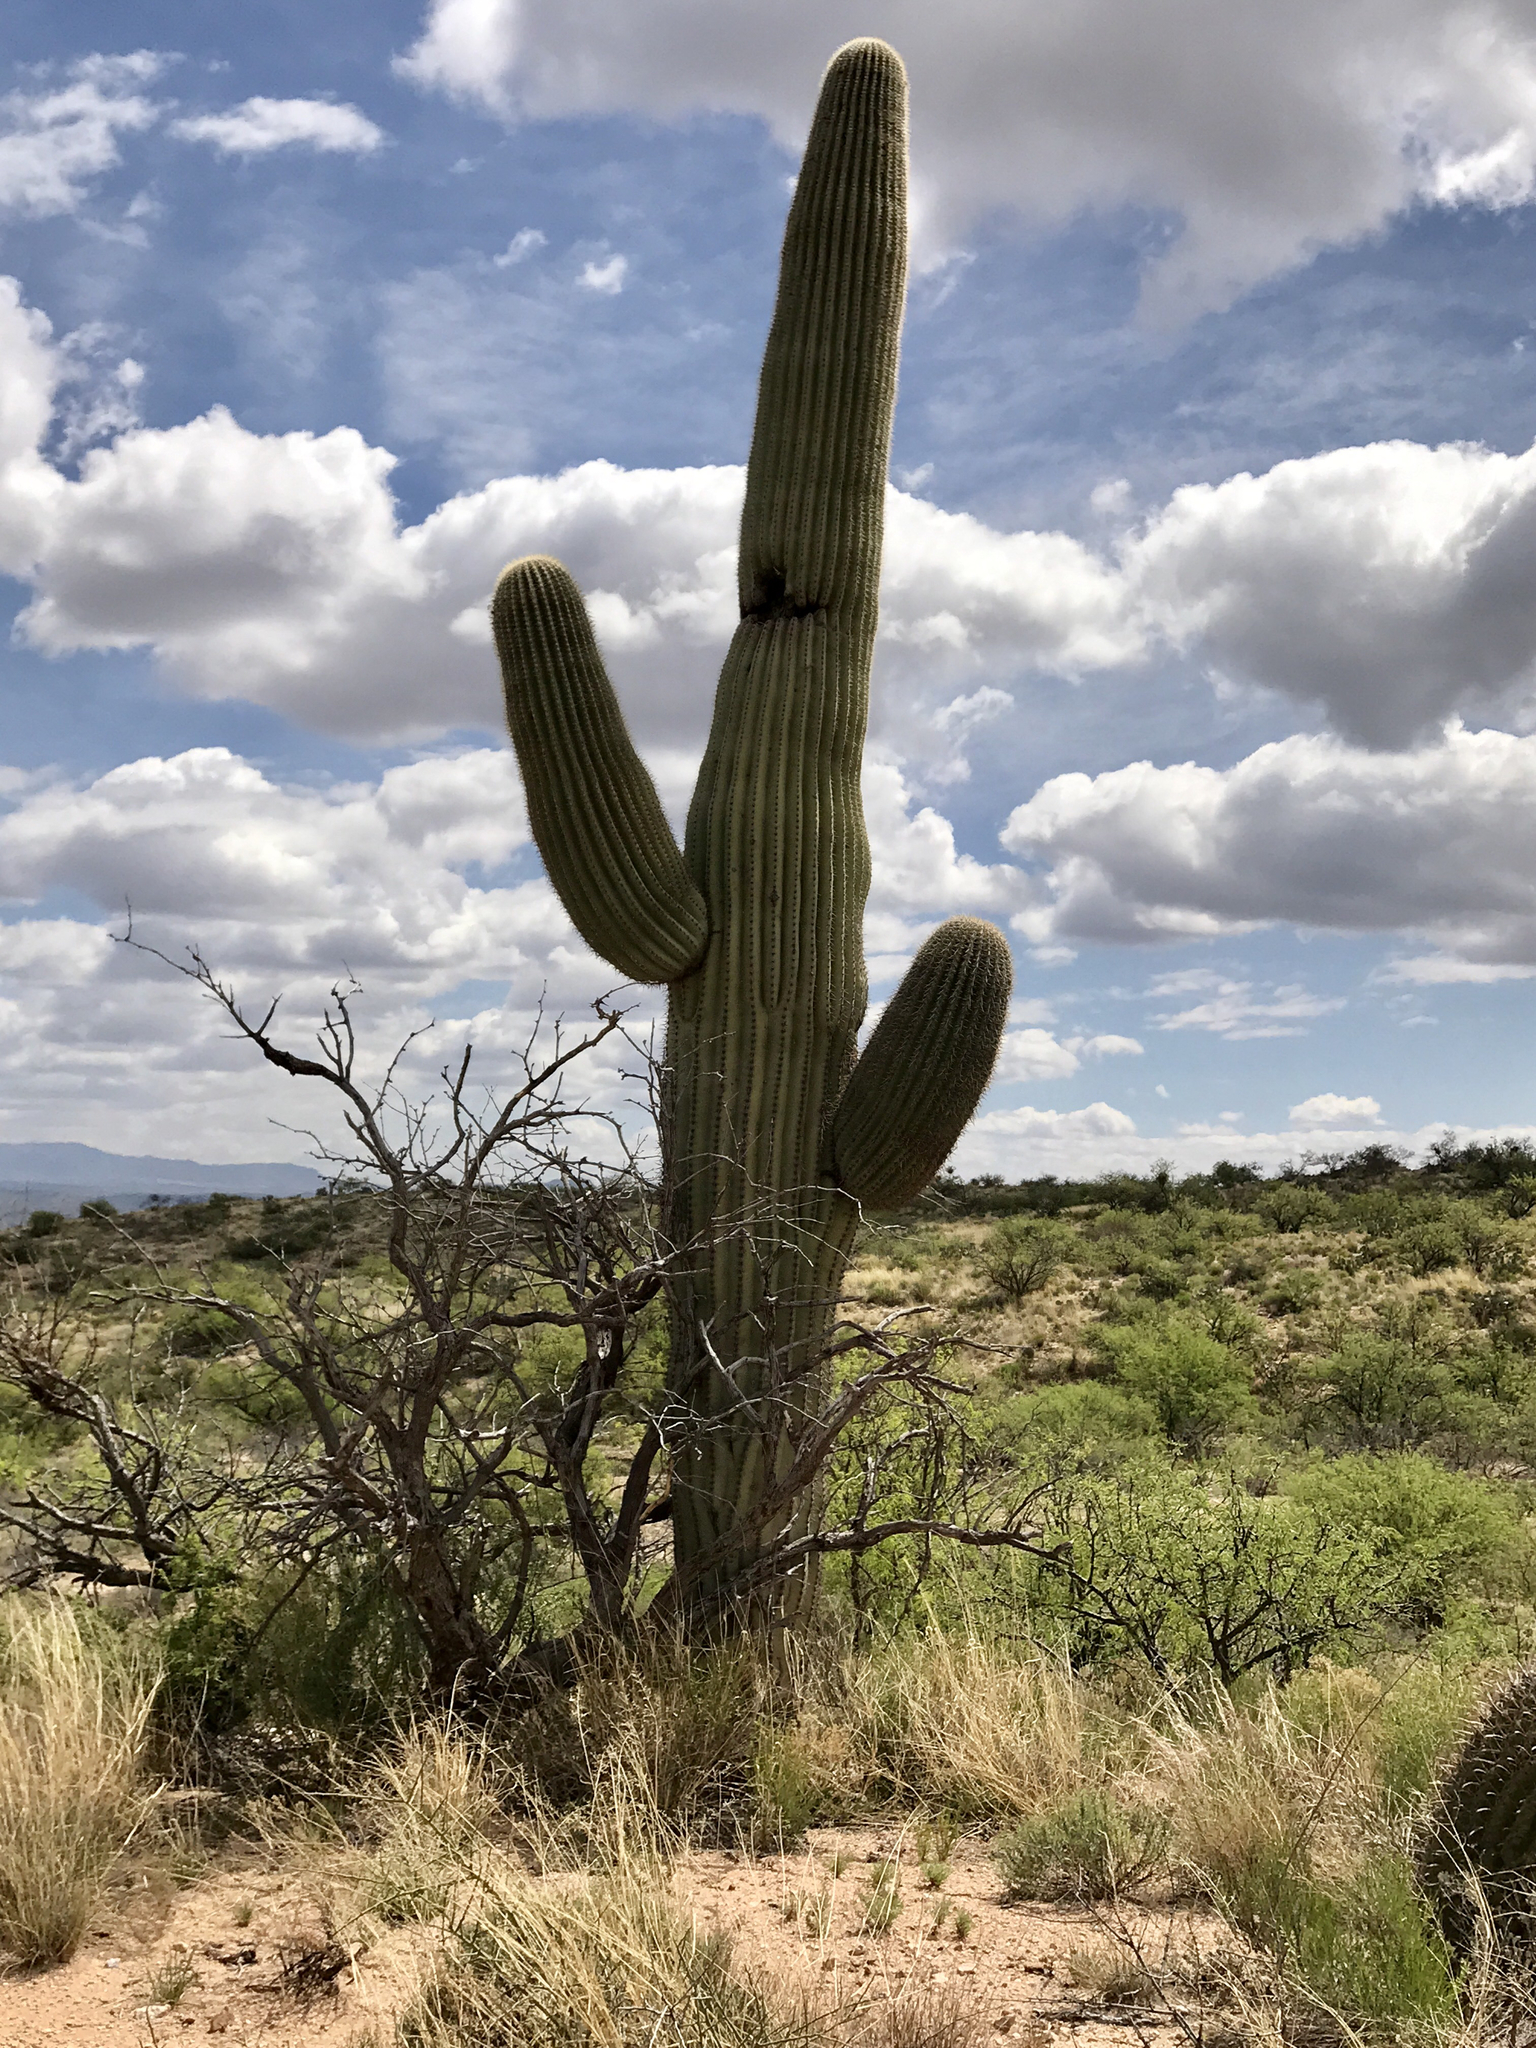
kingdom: Plantae
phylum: Tracheophyta
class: Magnoliopsida
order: Caryophyllales
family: Cactaceae
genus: Carnegiea
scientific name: Carnegiea gigantea
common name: Saguaro
